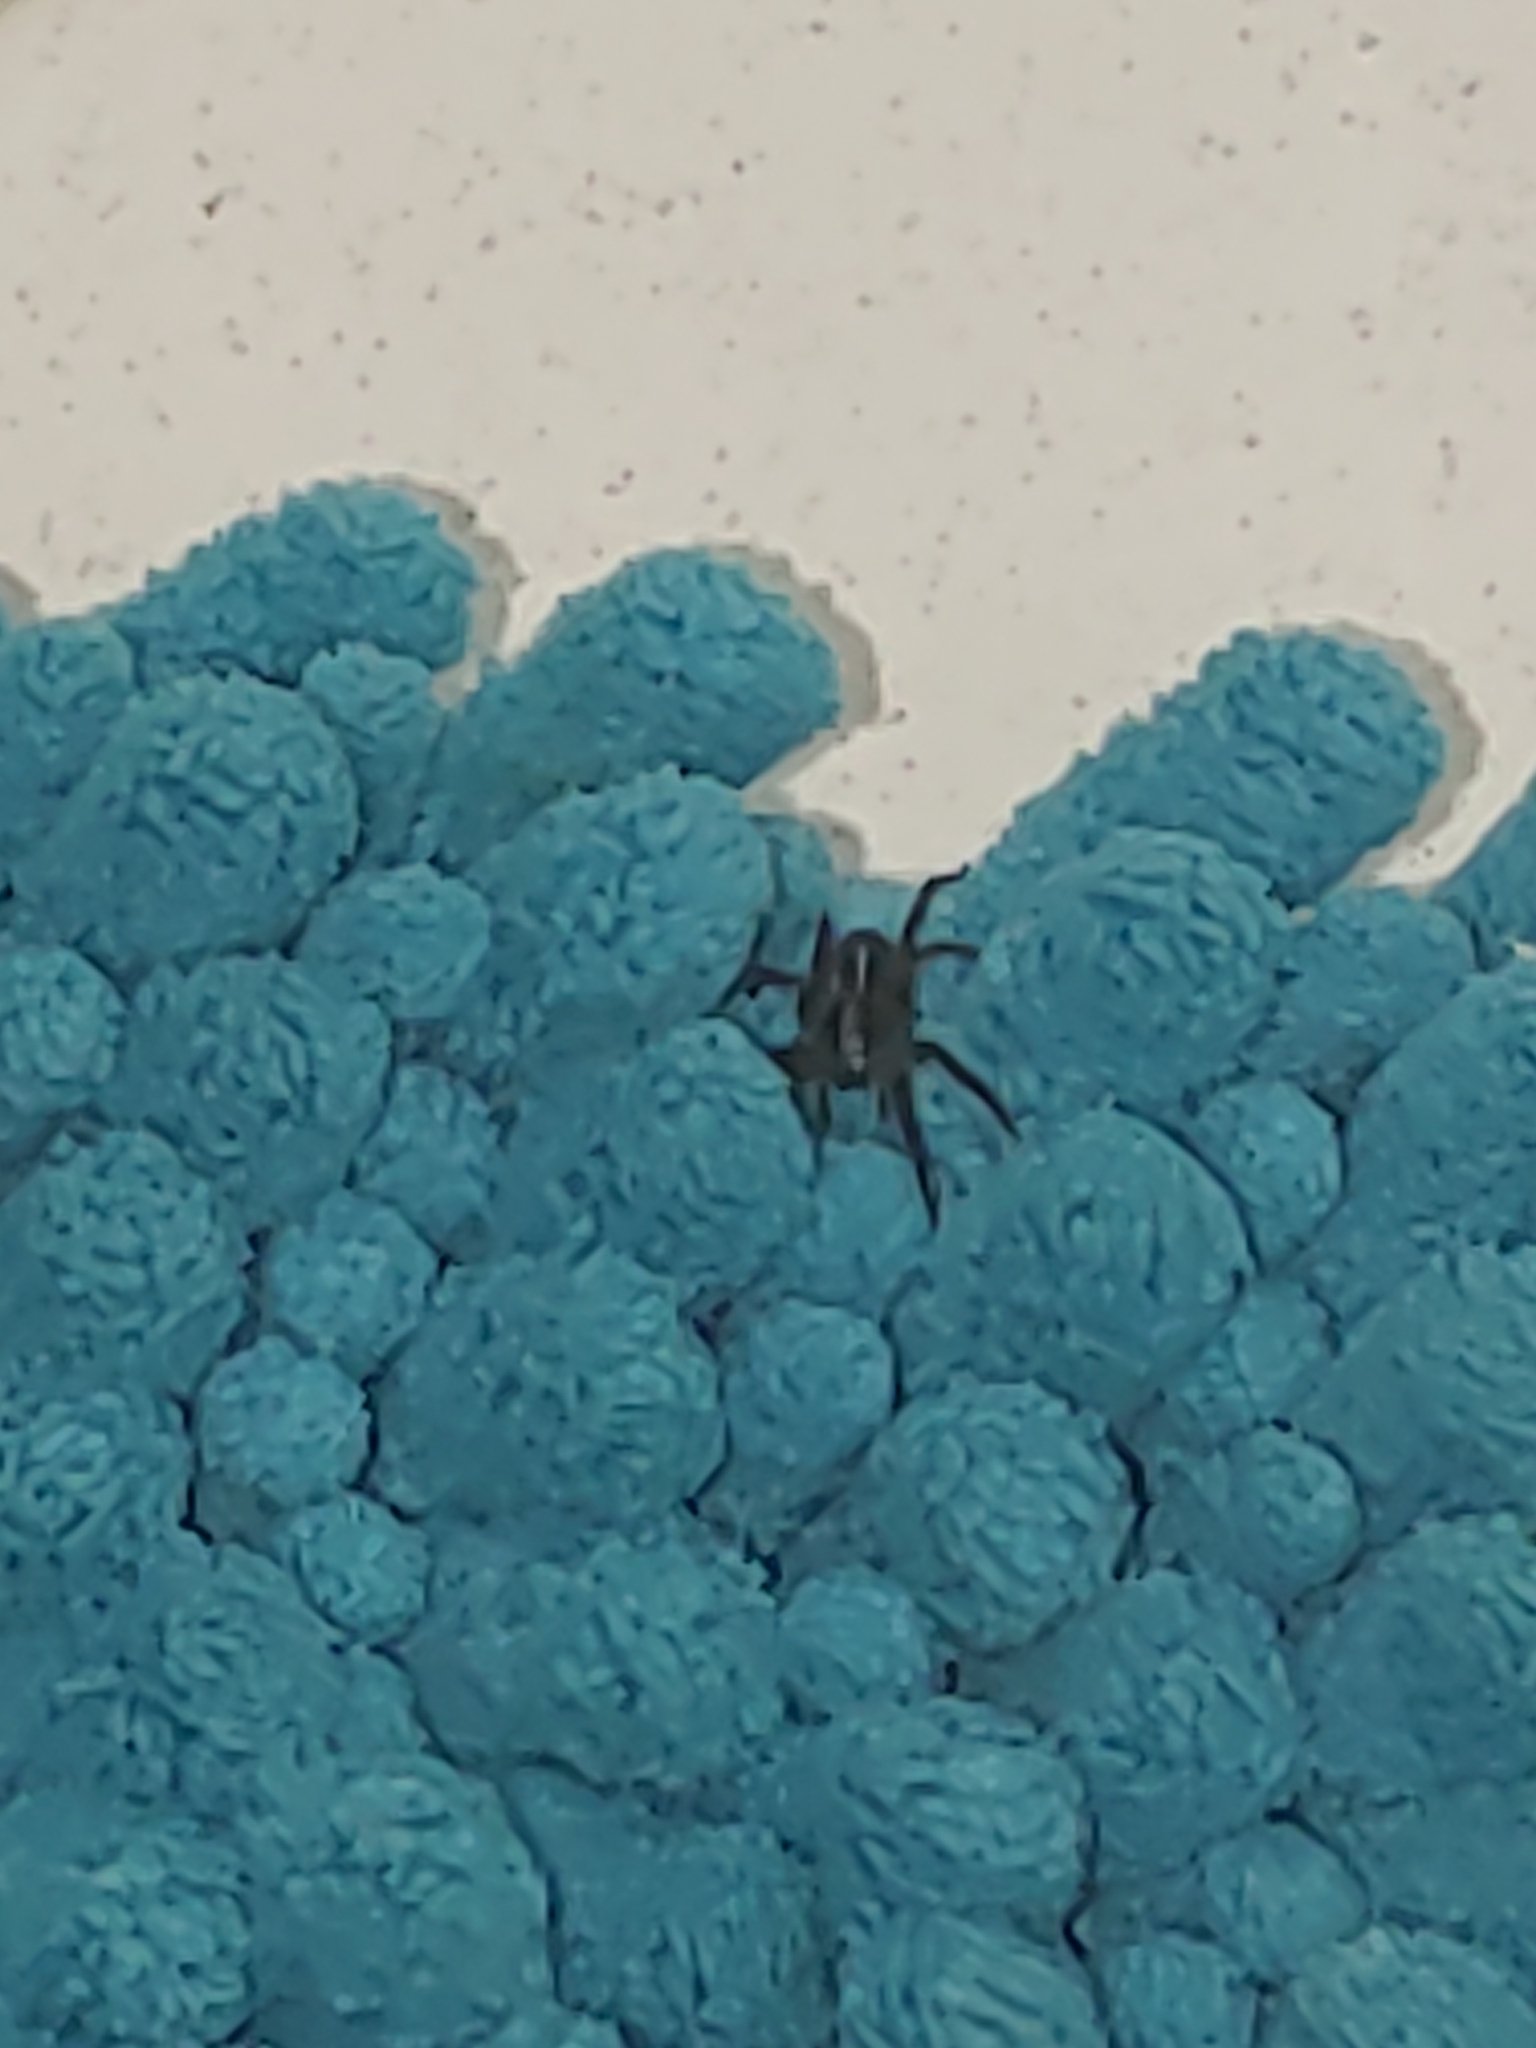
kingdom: Animalia
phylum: Arthropoda
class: Arachnida
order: Araneae
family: Lycosidae
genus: Trebacosa
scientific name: Trebacosa marxi
